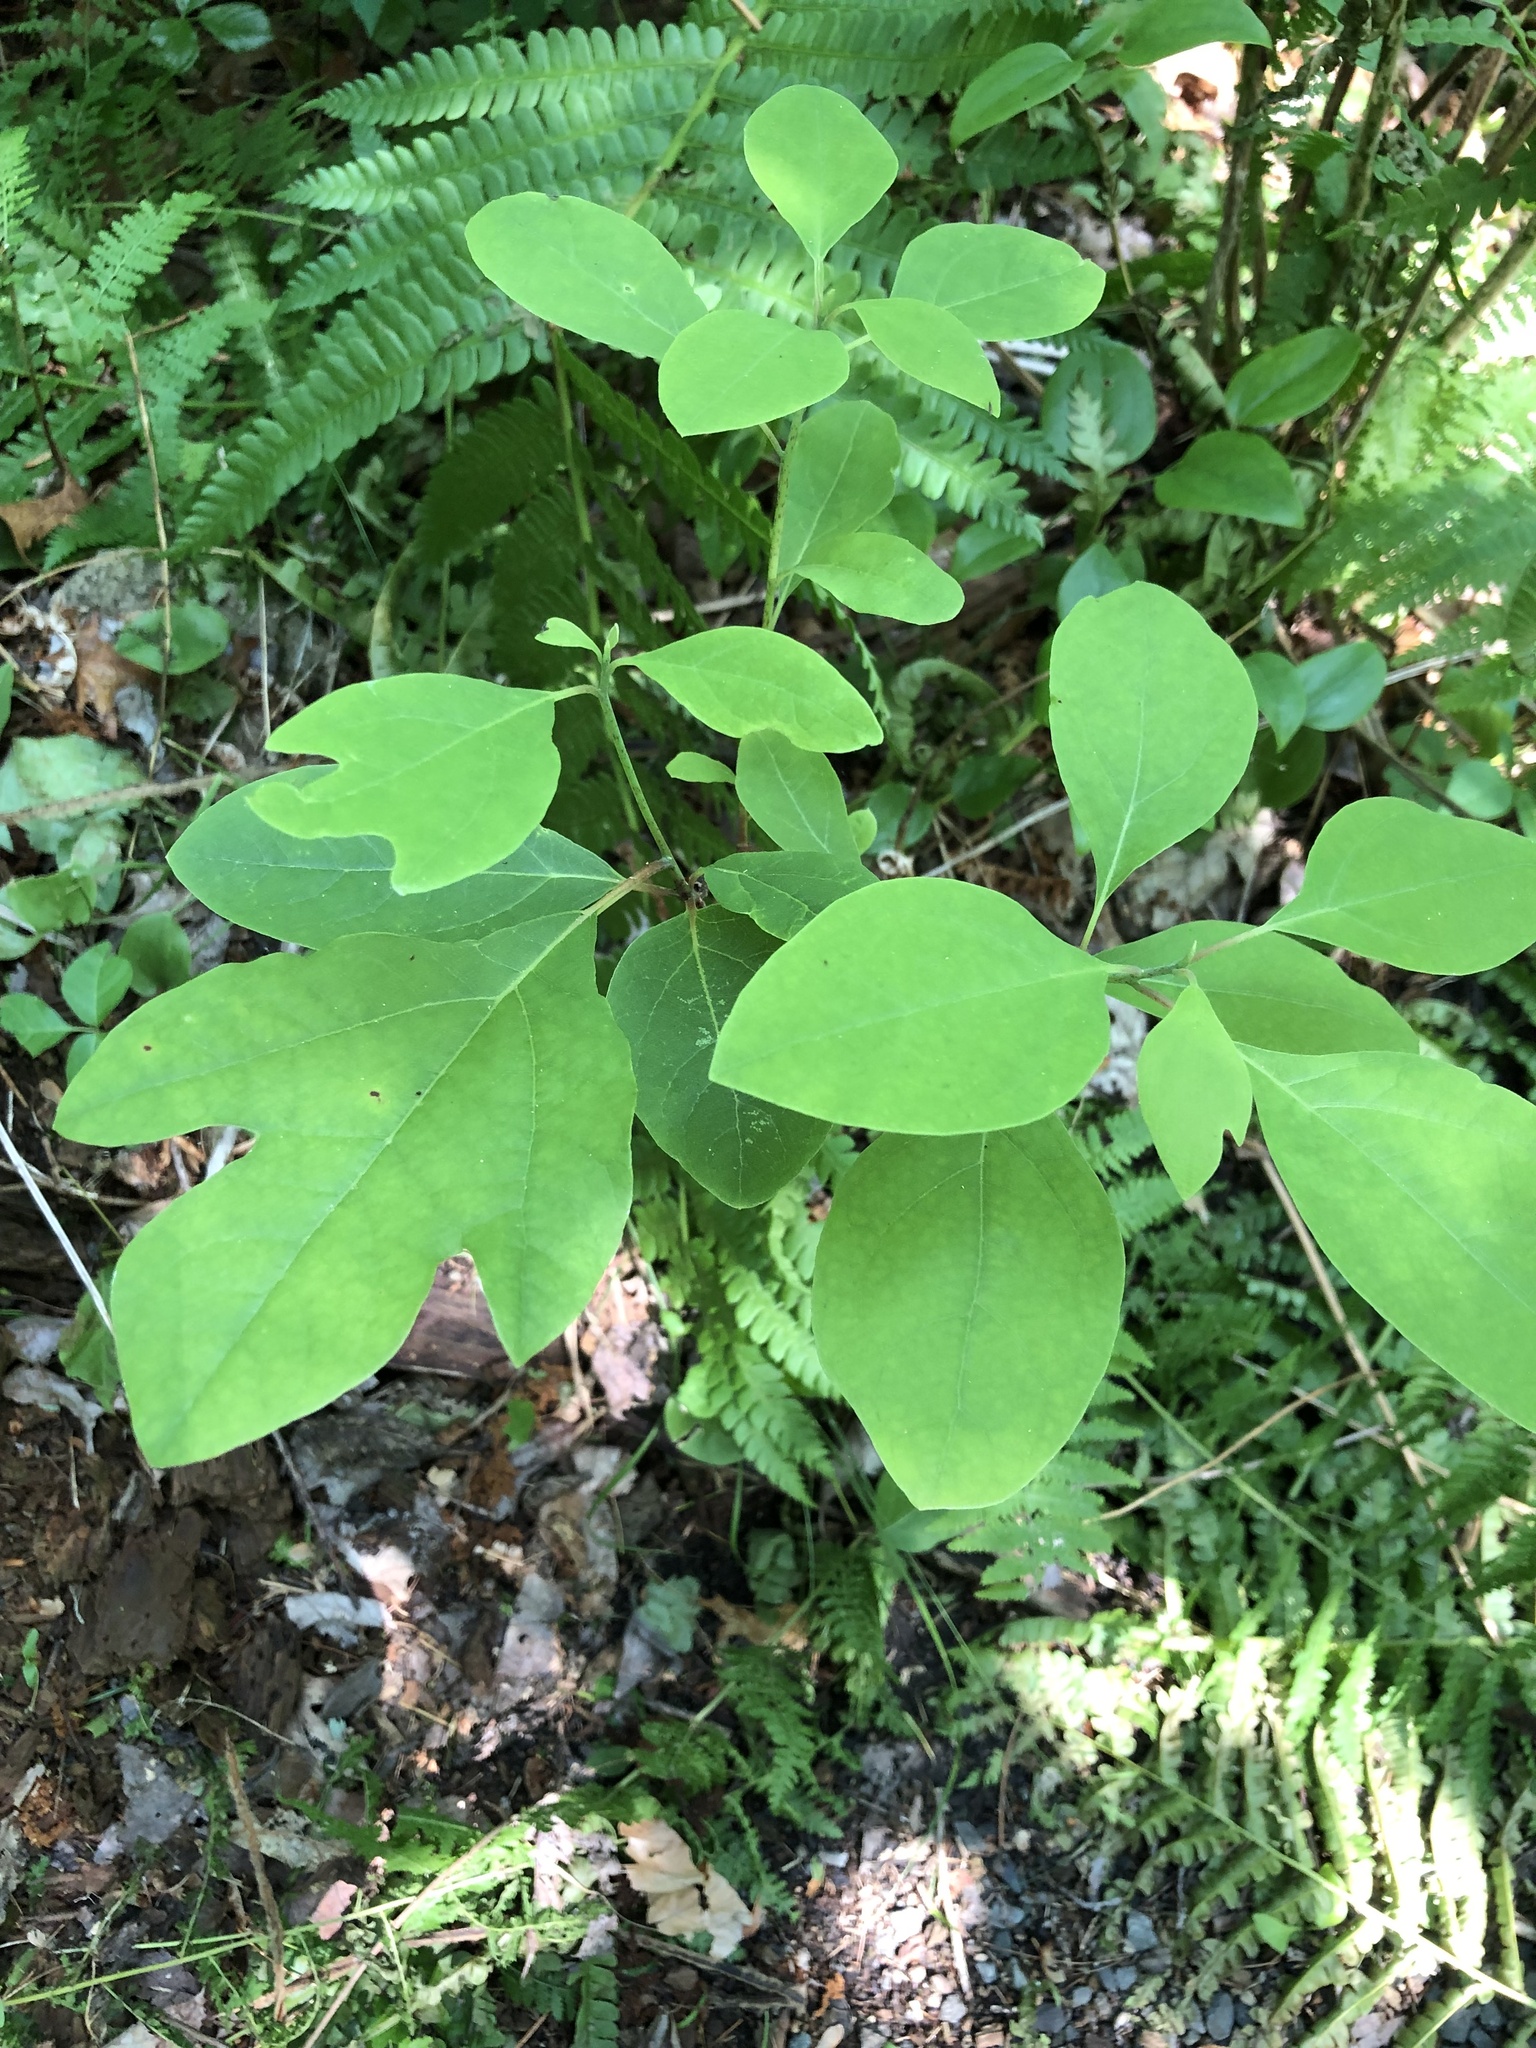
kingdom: Plantae
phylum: Tracheophyta
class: Magnoliopsida
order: Laurales
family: Lauraceae
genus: Sassafras
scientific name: Sassafras albidum
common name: Sassafras
